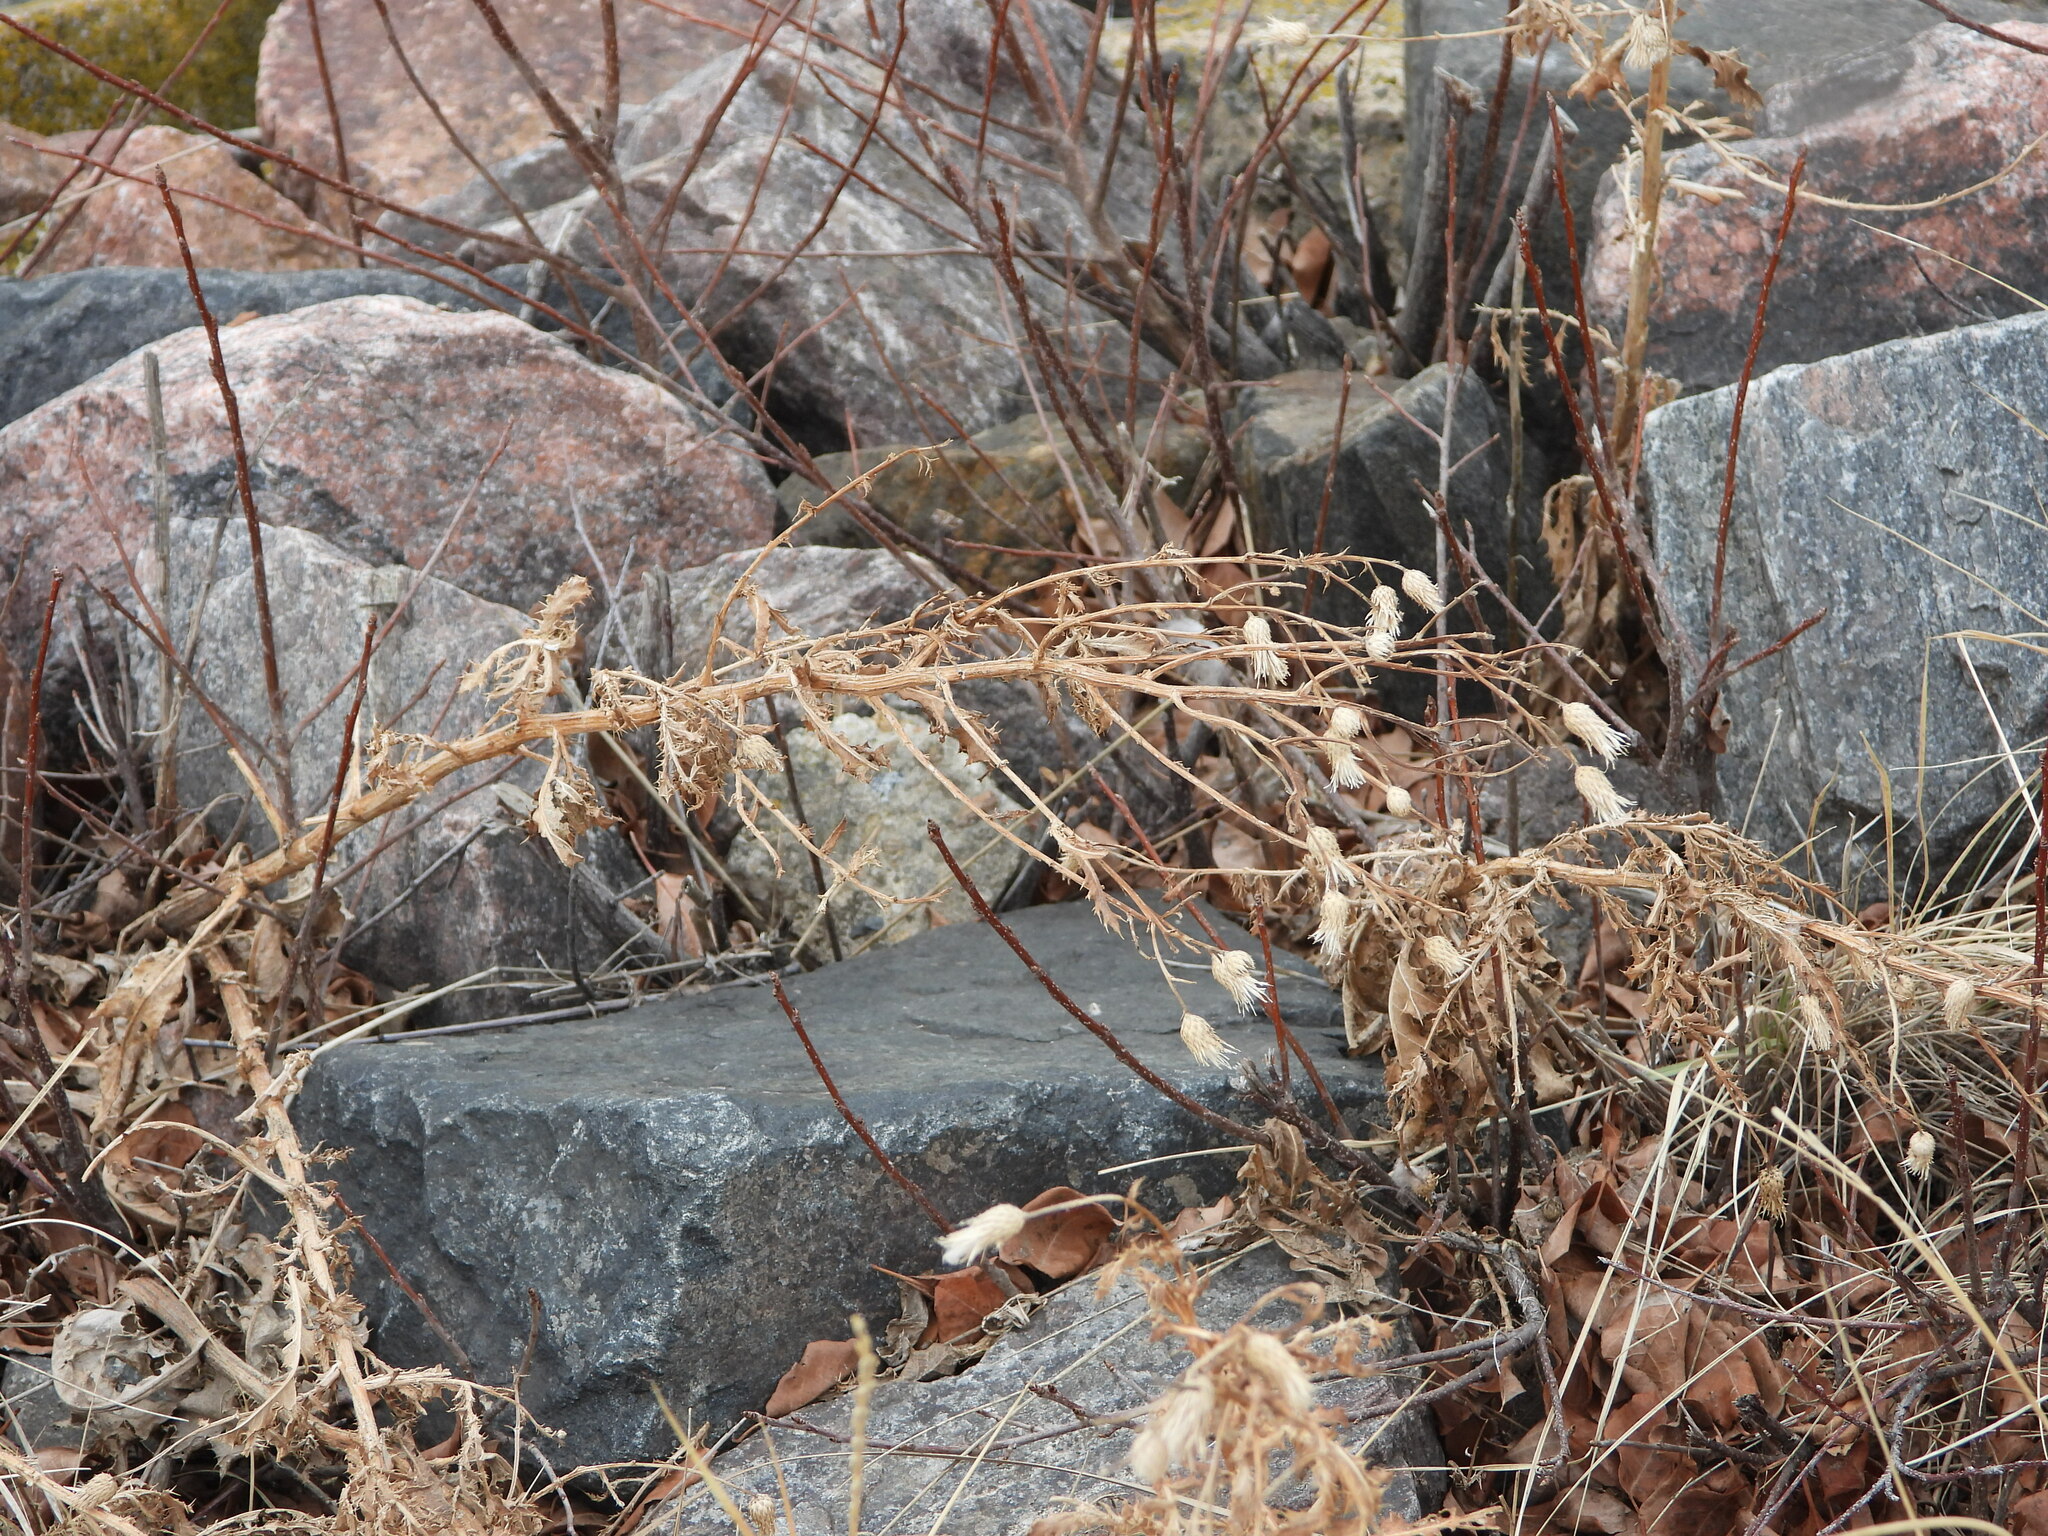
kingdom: Plantae
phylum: Tracheophyta
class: Magnoliopsida
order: Asterales
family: Asteraceae
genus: Cirsium
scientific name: Cirsium arvense
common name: Creeping thistle
